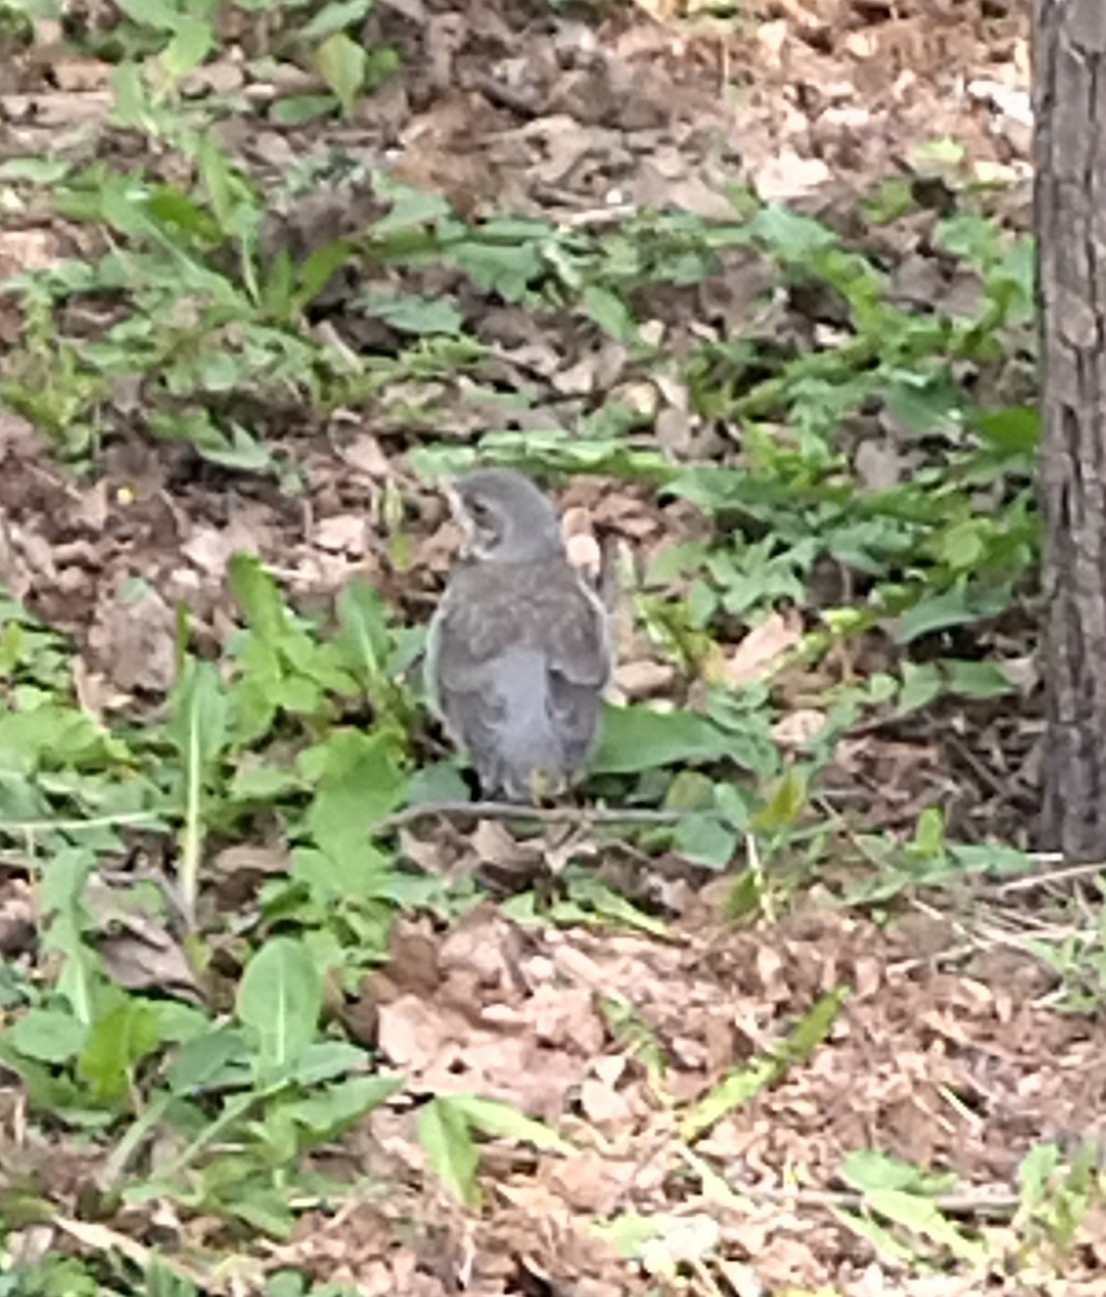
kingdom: Animalia
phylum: Chordata
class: Aves
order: Passeriformes
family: Turdidae
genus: Turdus
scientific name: Turdus pilaris
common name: Fieldfare
